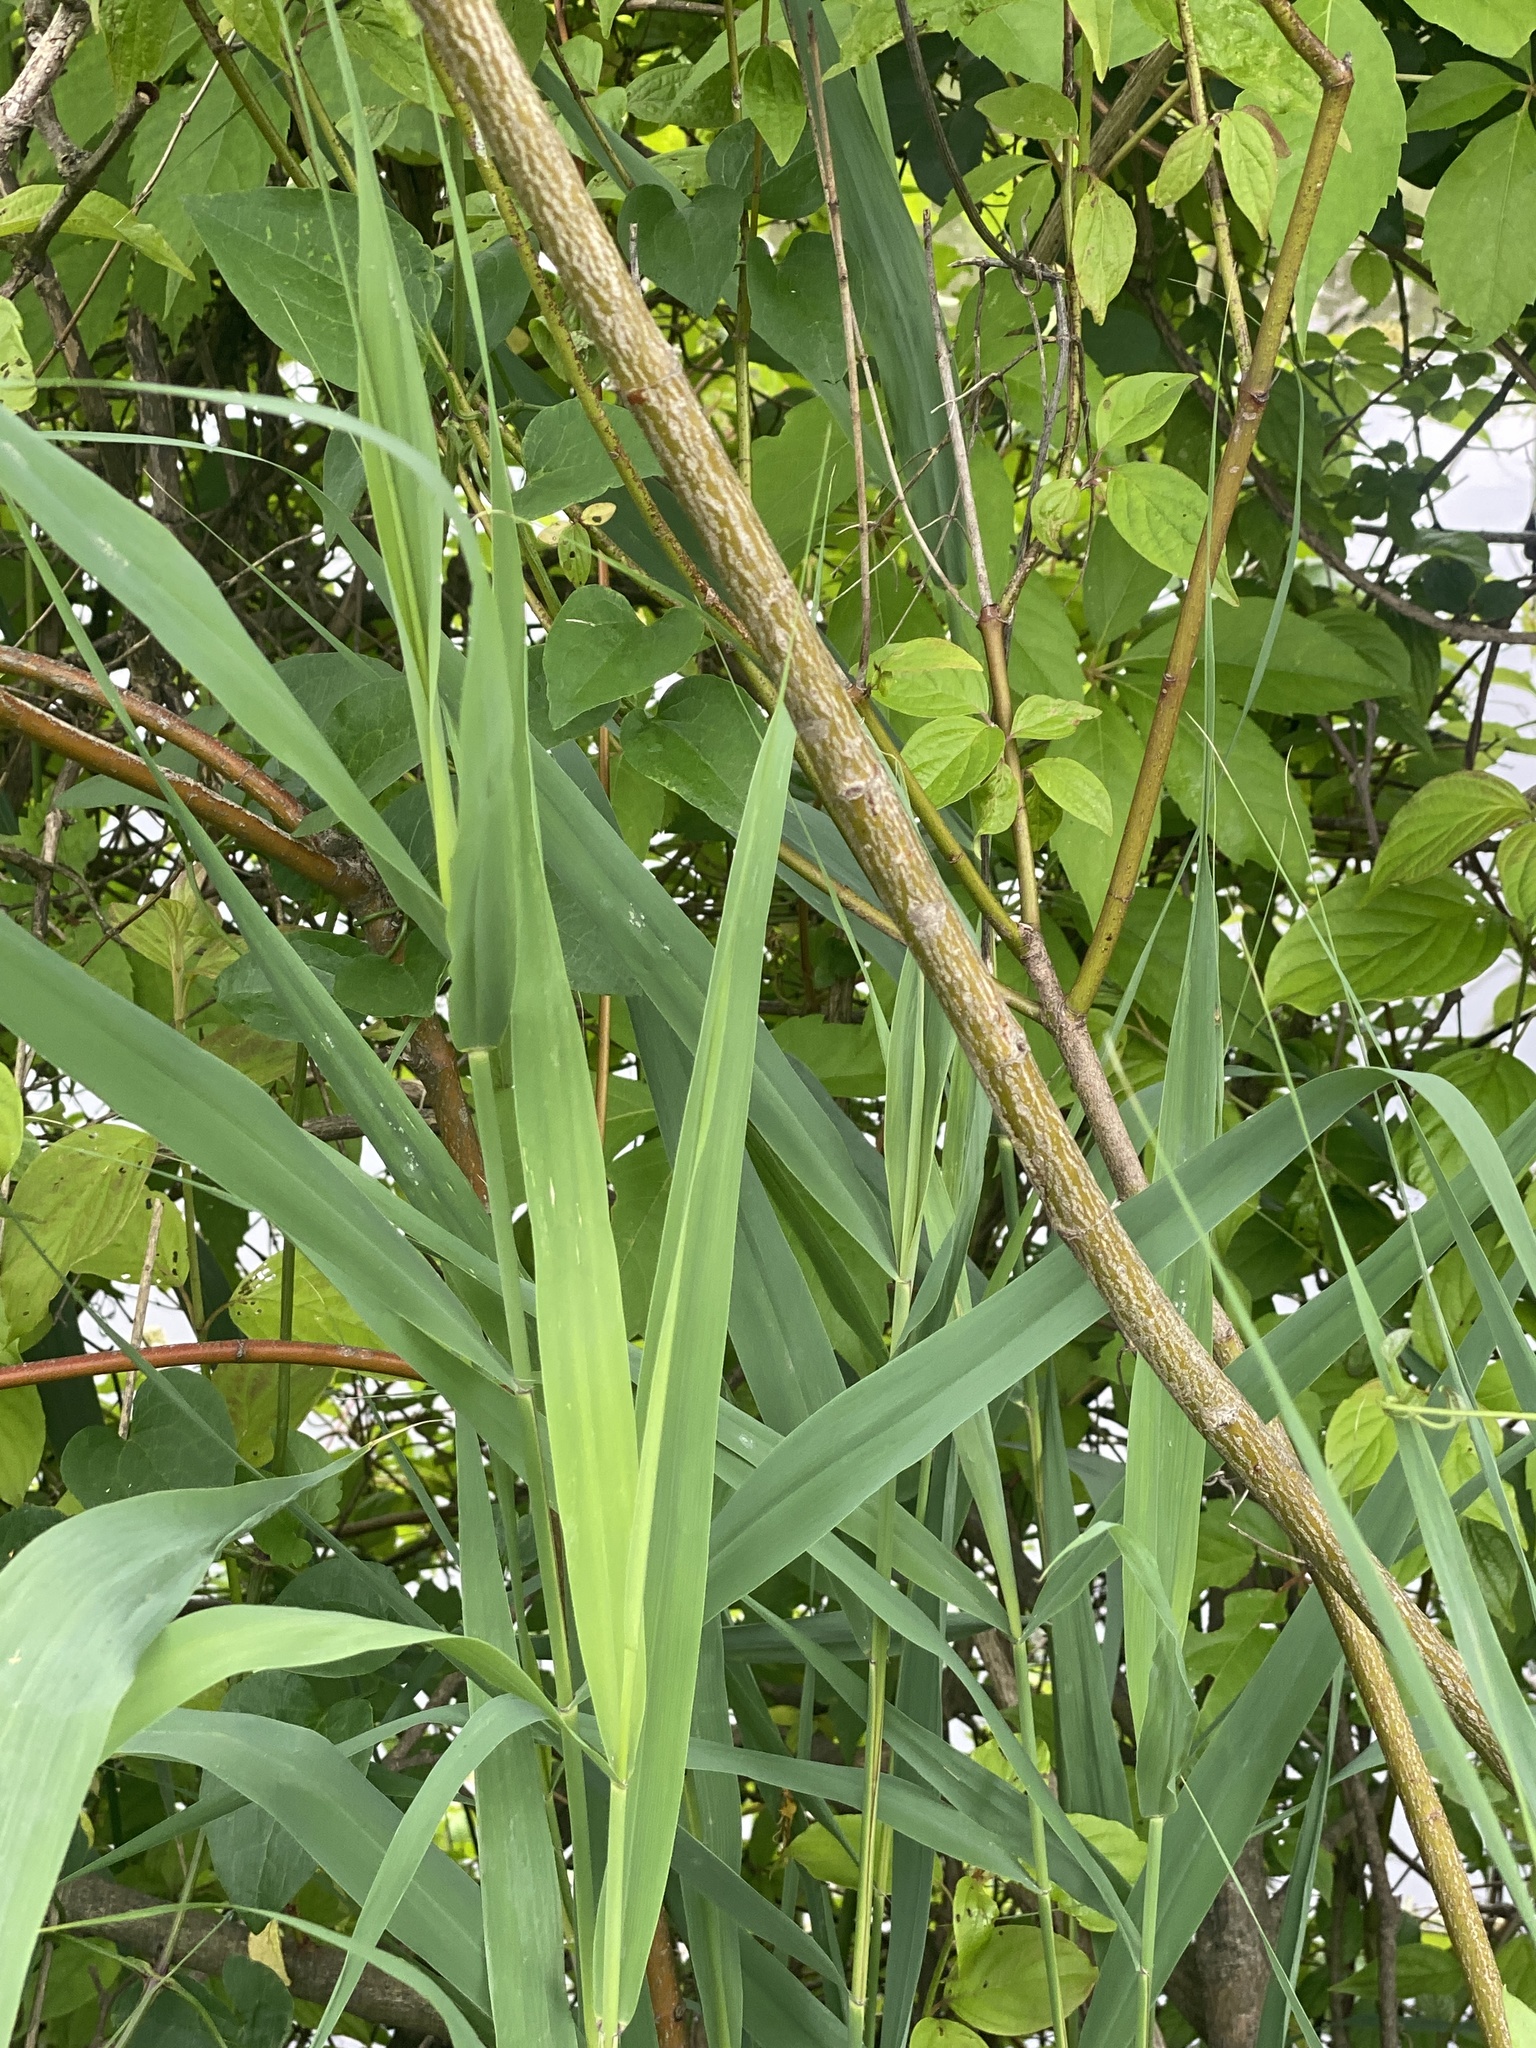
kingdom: Plantae
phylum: Tracheophyta
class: Magnoliopsida
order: Cornales
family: Cornaceae
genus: Cornus
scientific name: Cornus amomum
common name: Silky dogwood
